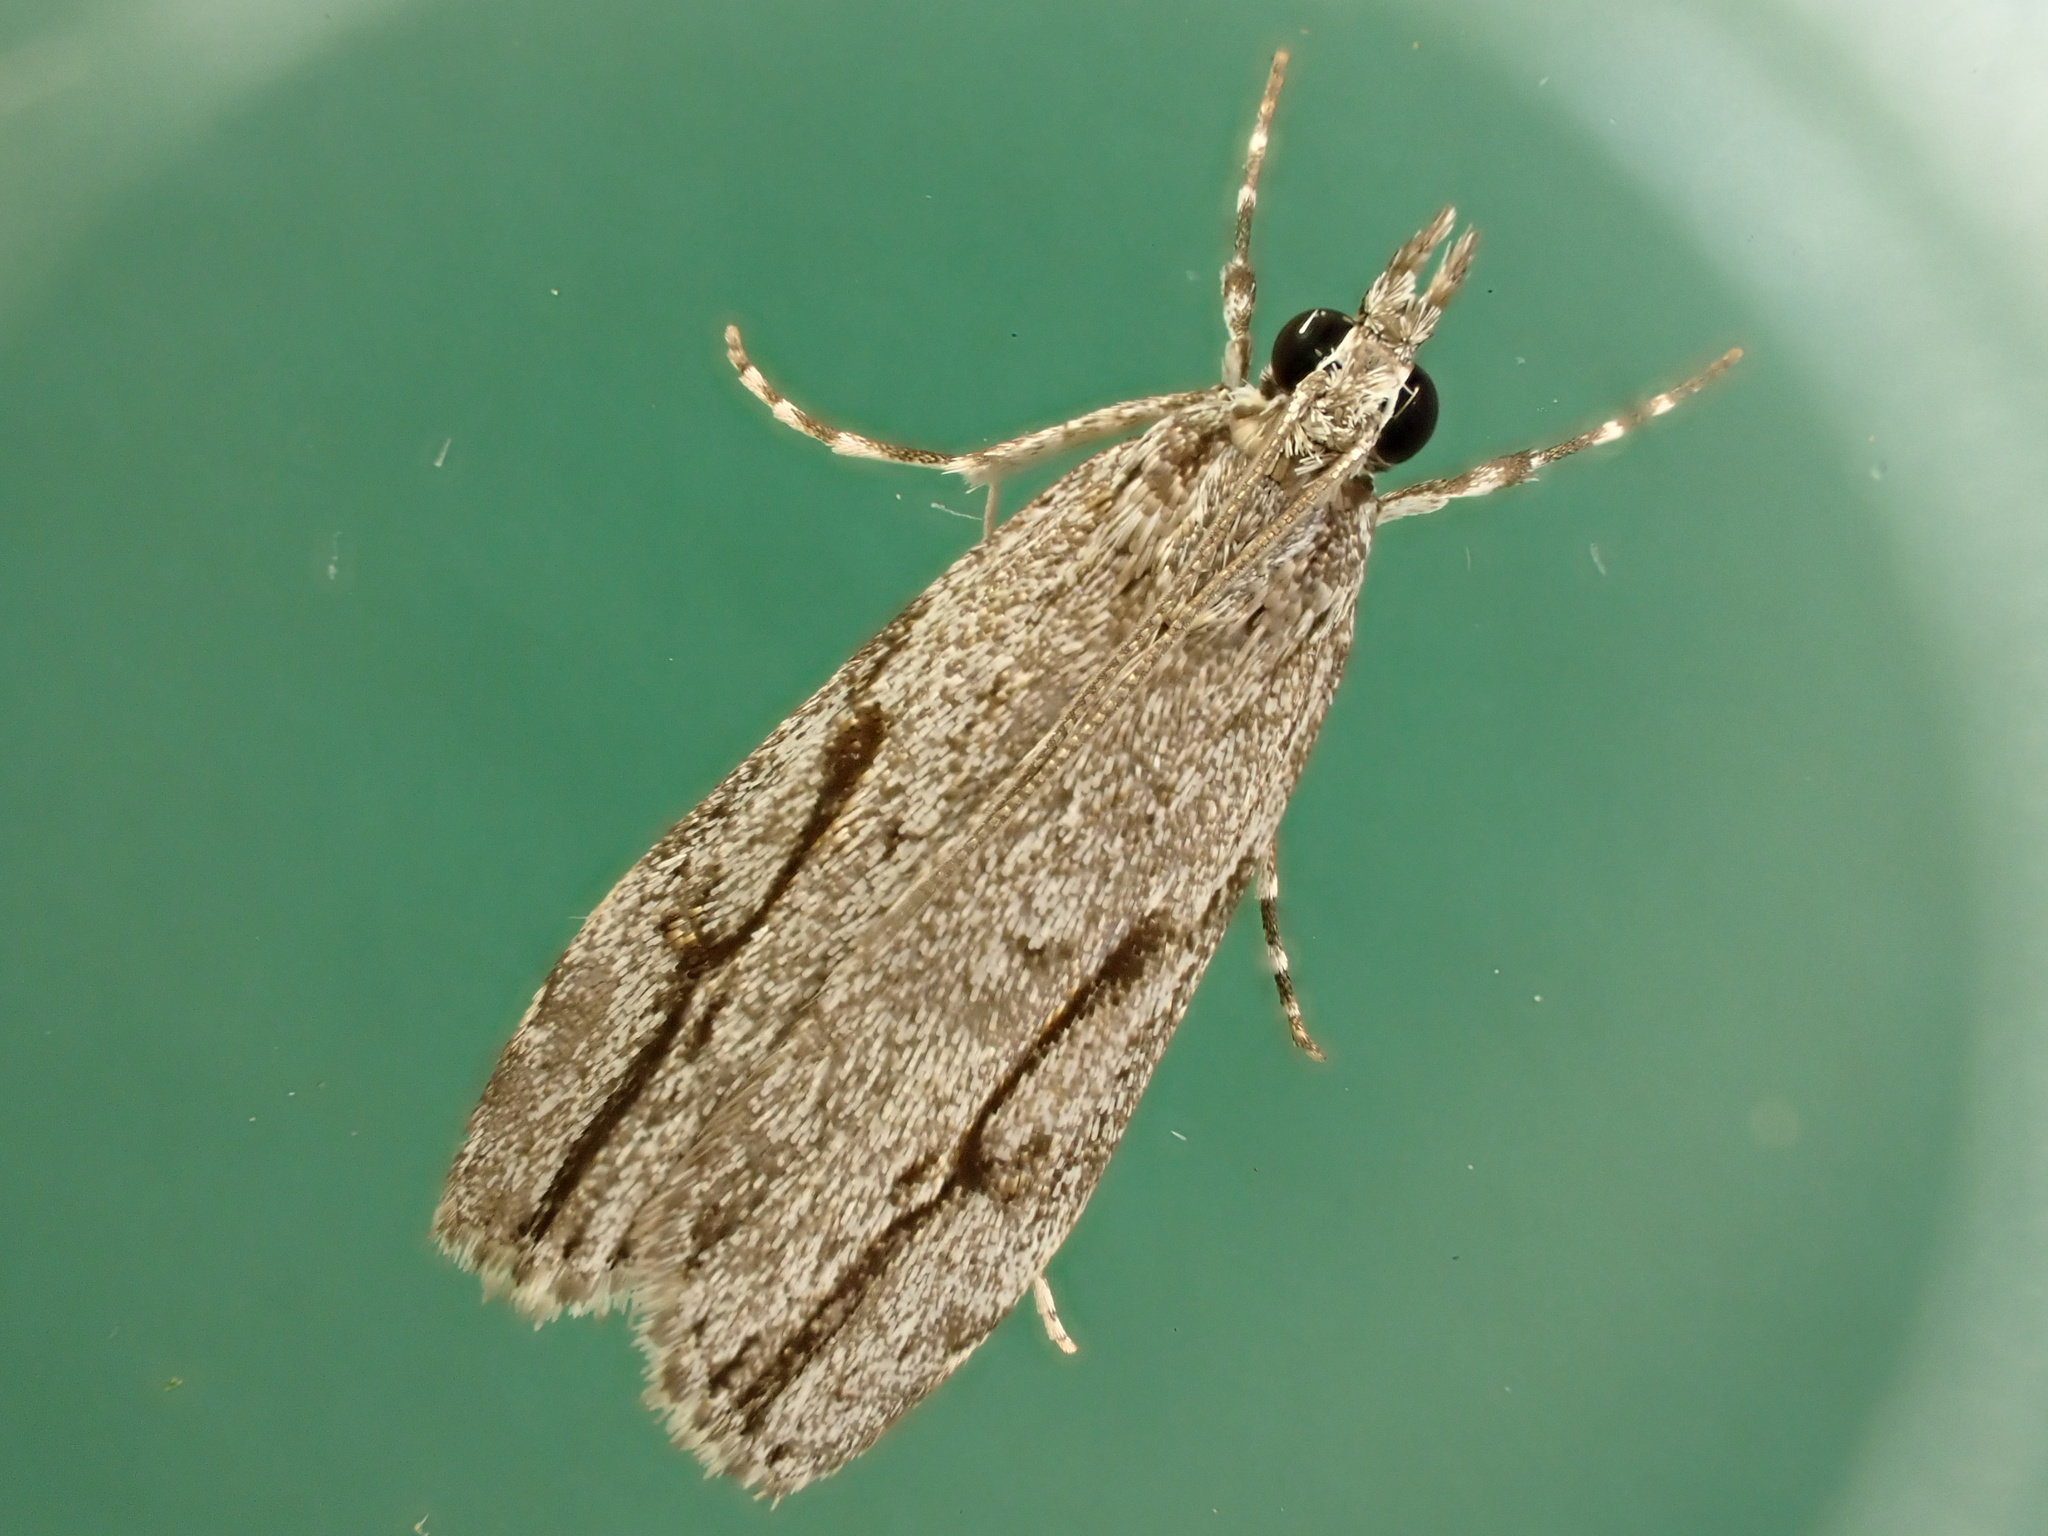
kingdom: Animalia
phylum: Arthropoda
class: Insecta
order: Lepidoptera
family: Crambidae
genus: Eudonia
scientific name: Eudonia bisinualis
